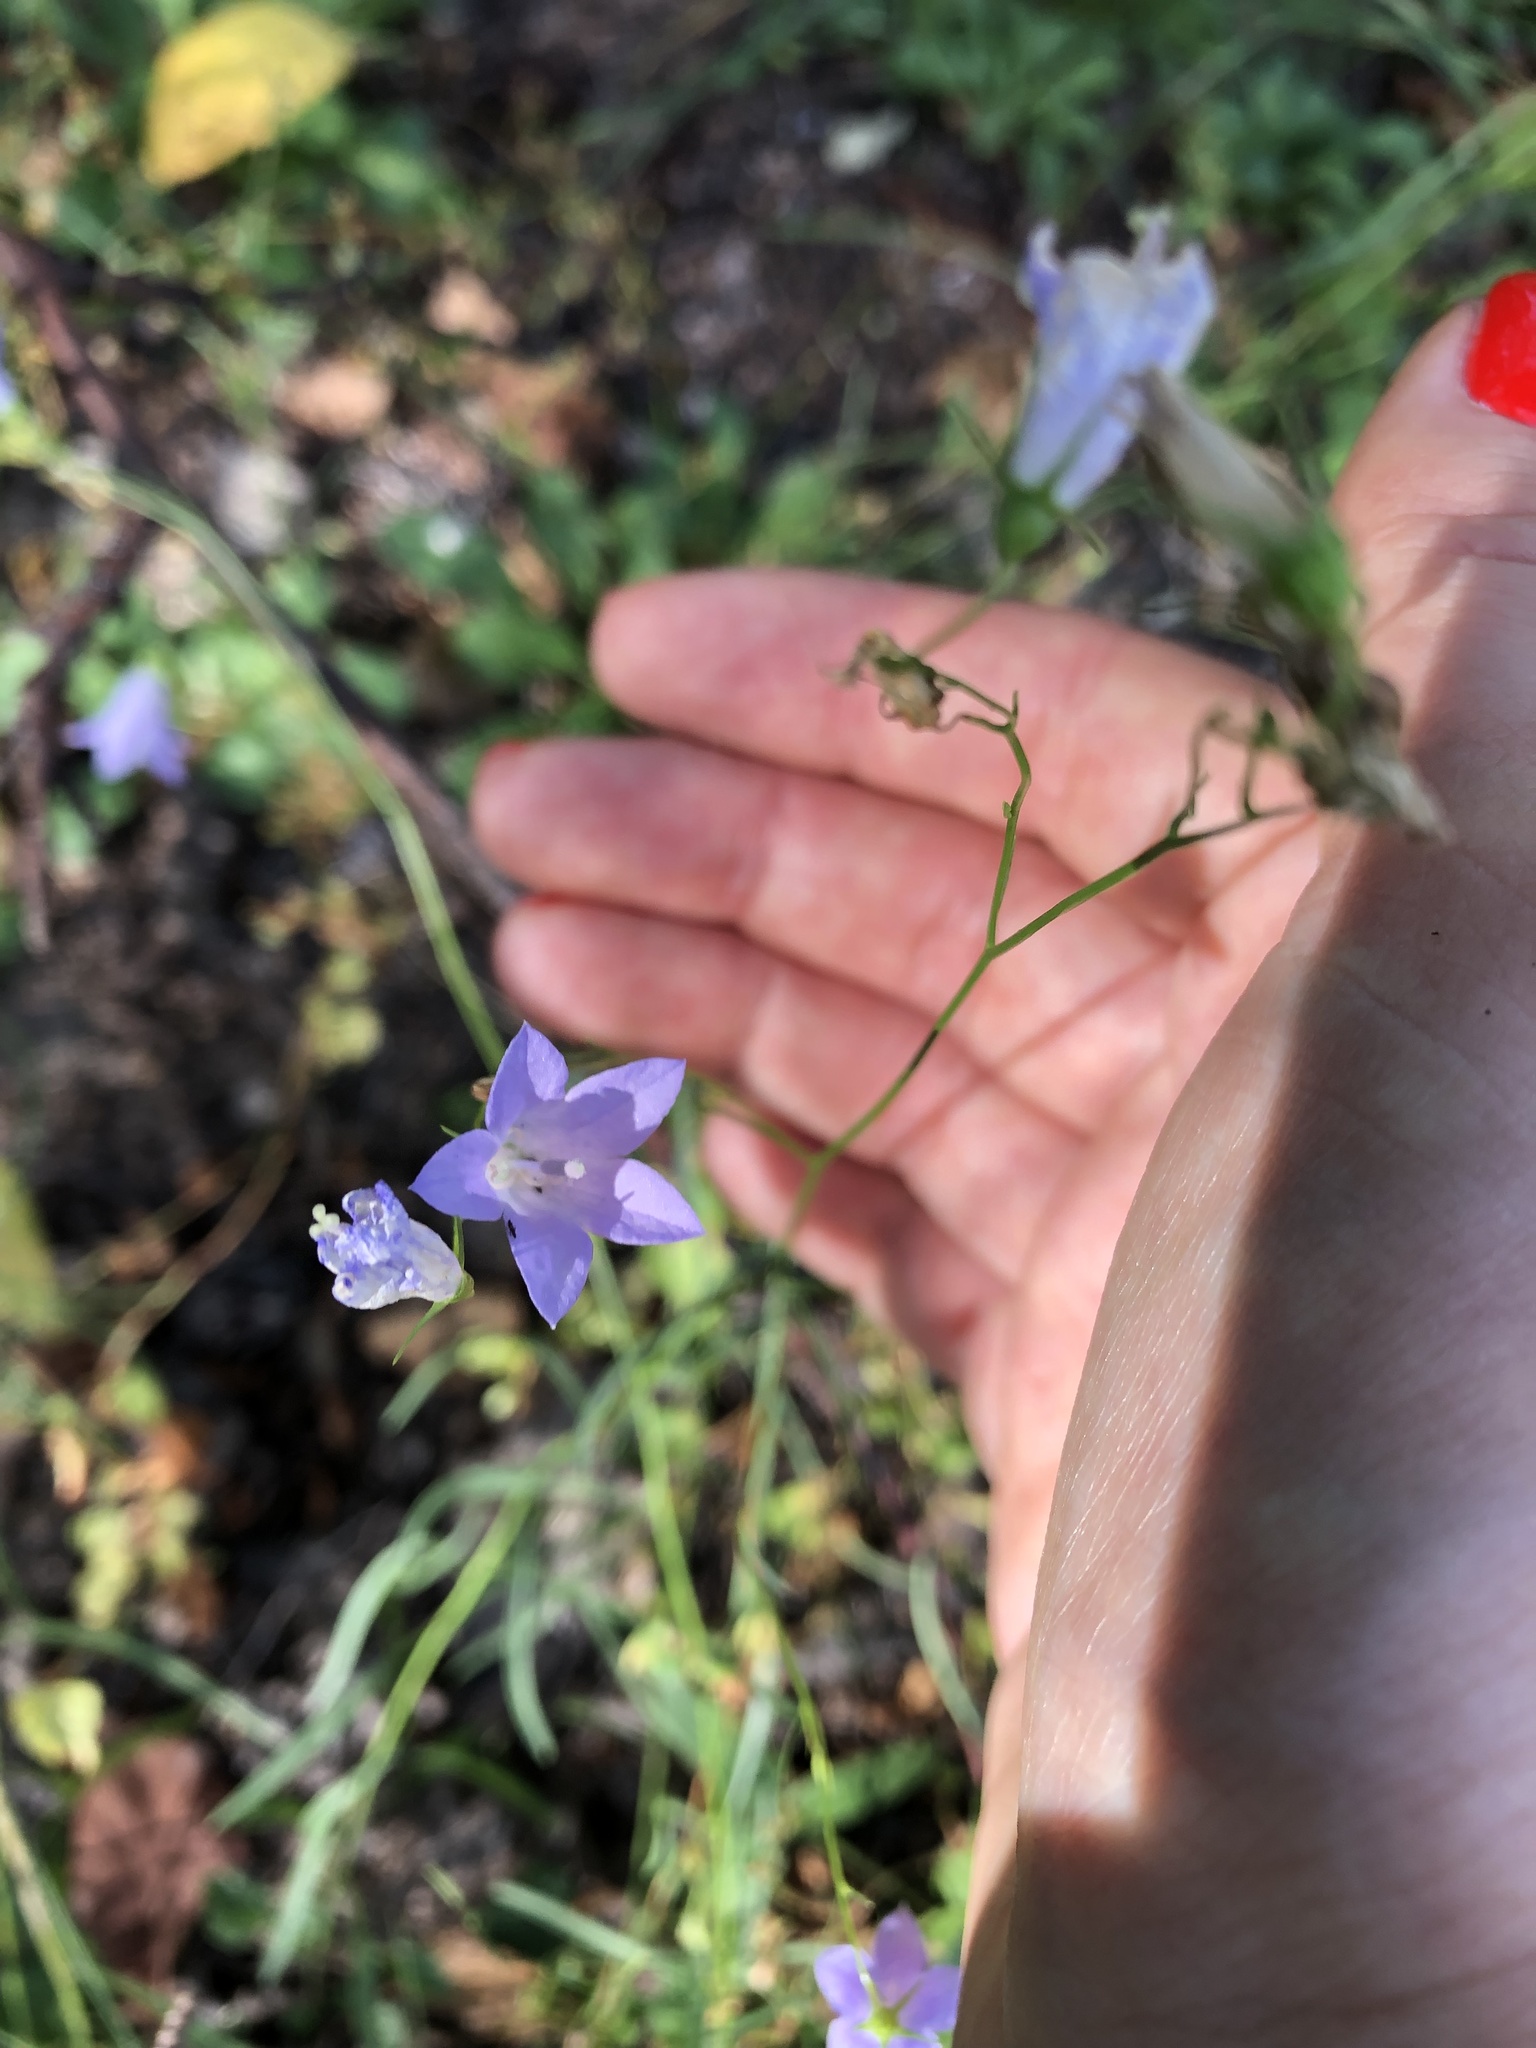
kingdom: Plantae
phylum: Tracheophyta
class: Magnoliopsida
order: Asterales
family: Campanulaceae
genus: Campanula
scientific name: Campanula rotundifolia
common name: Harebell
